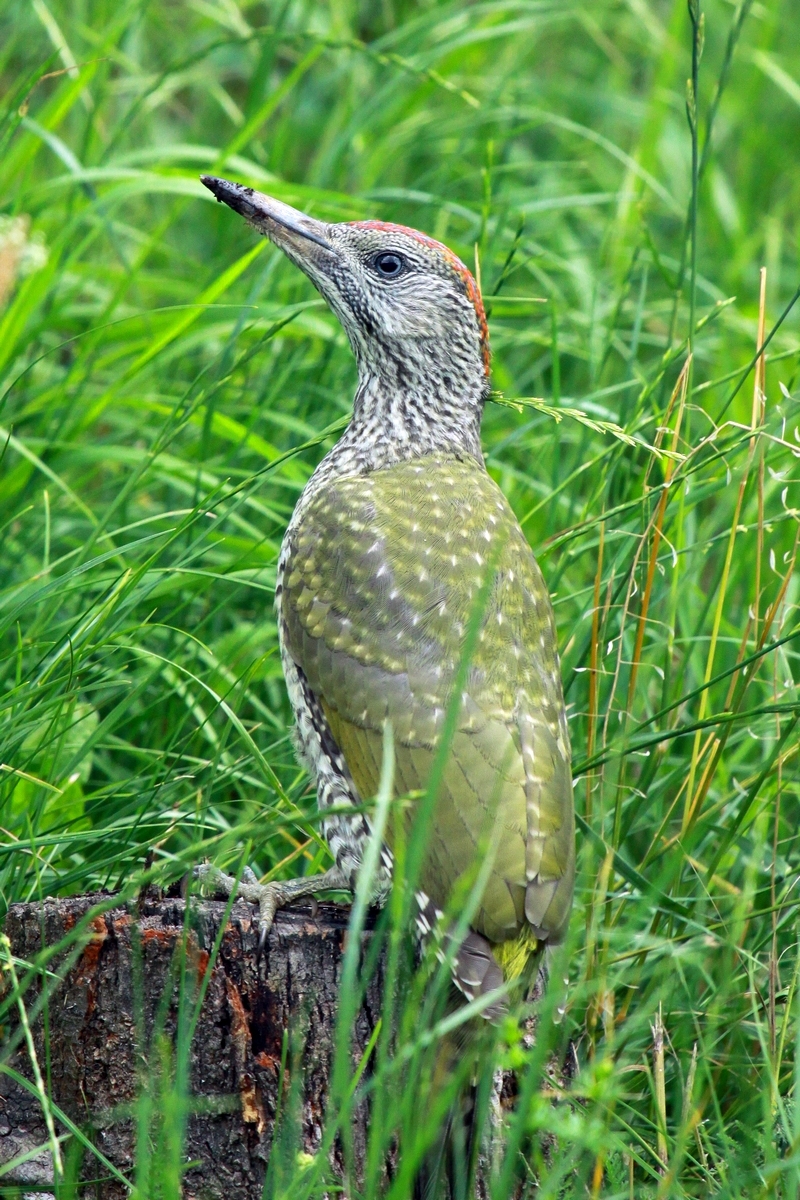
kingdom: Animalia
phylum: Chordata
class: Aves
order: Piciformes
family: Picidae
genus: Picus
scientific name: Picus viridis
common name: European green woodpecker
